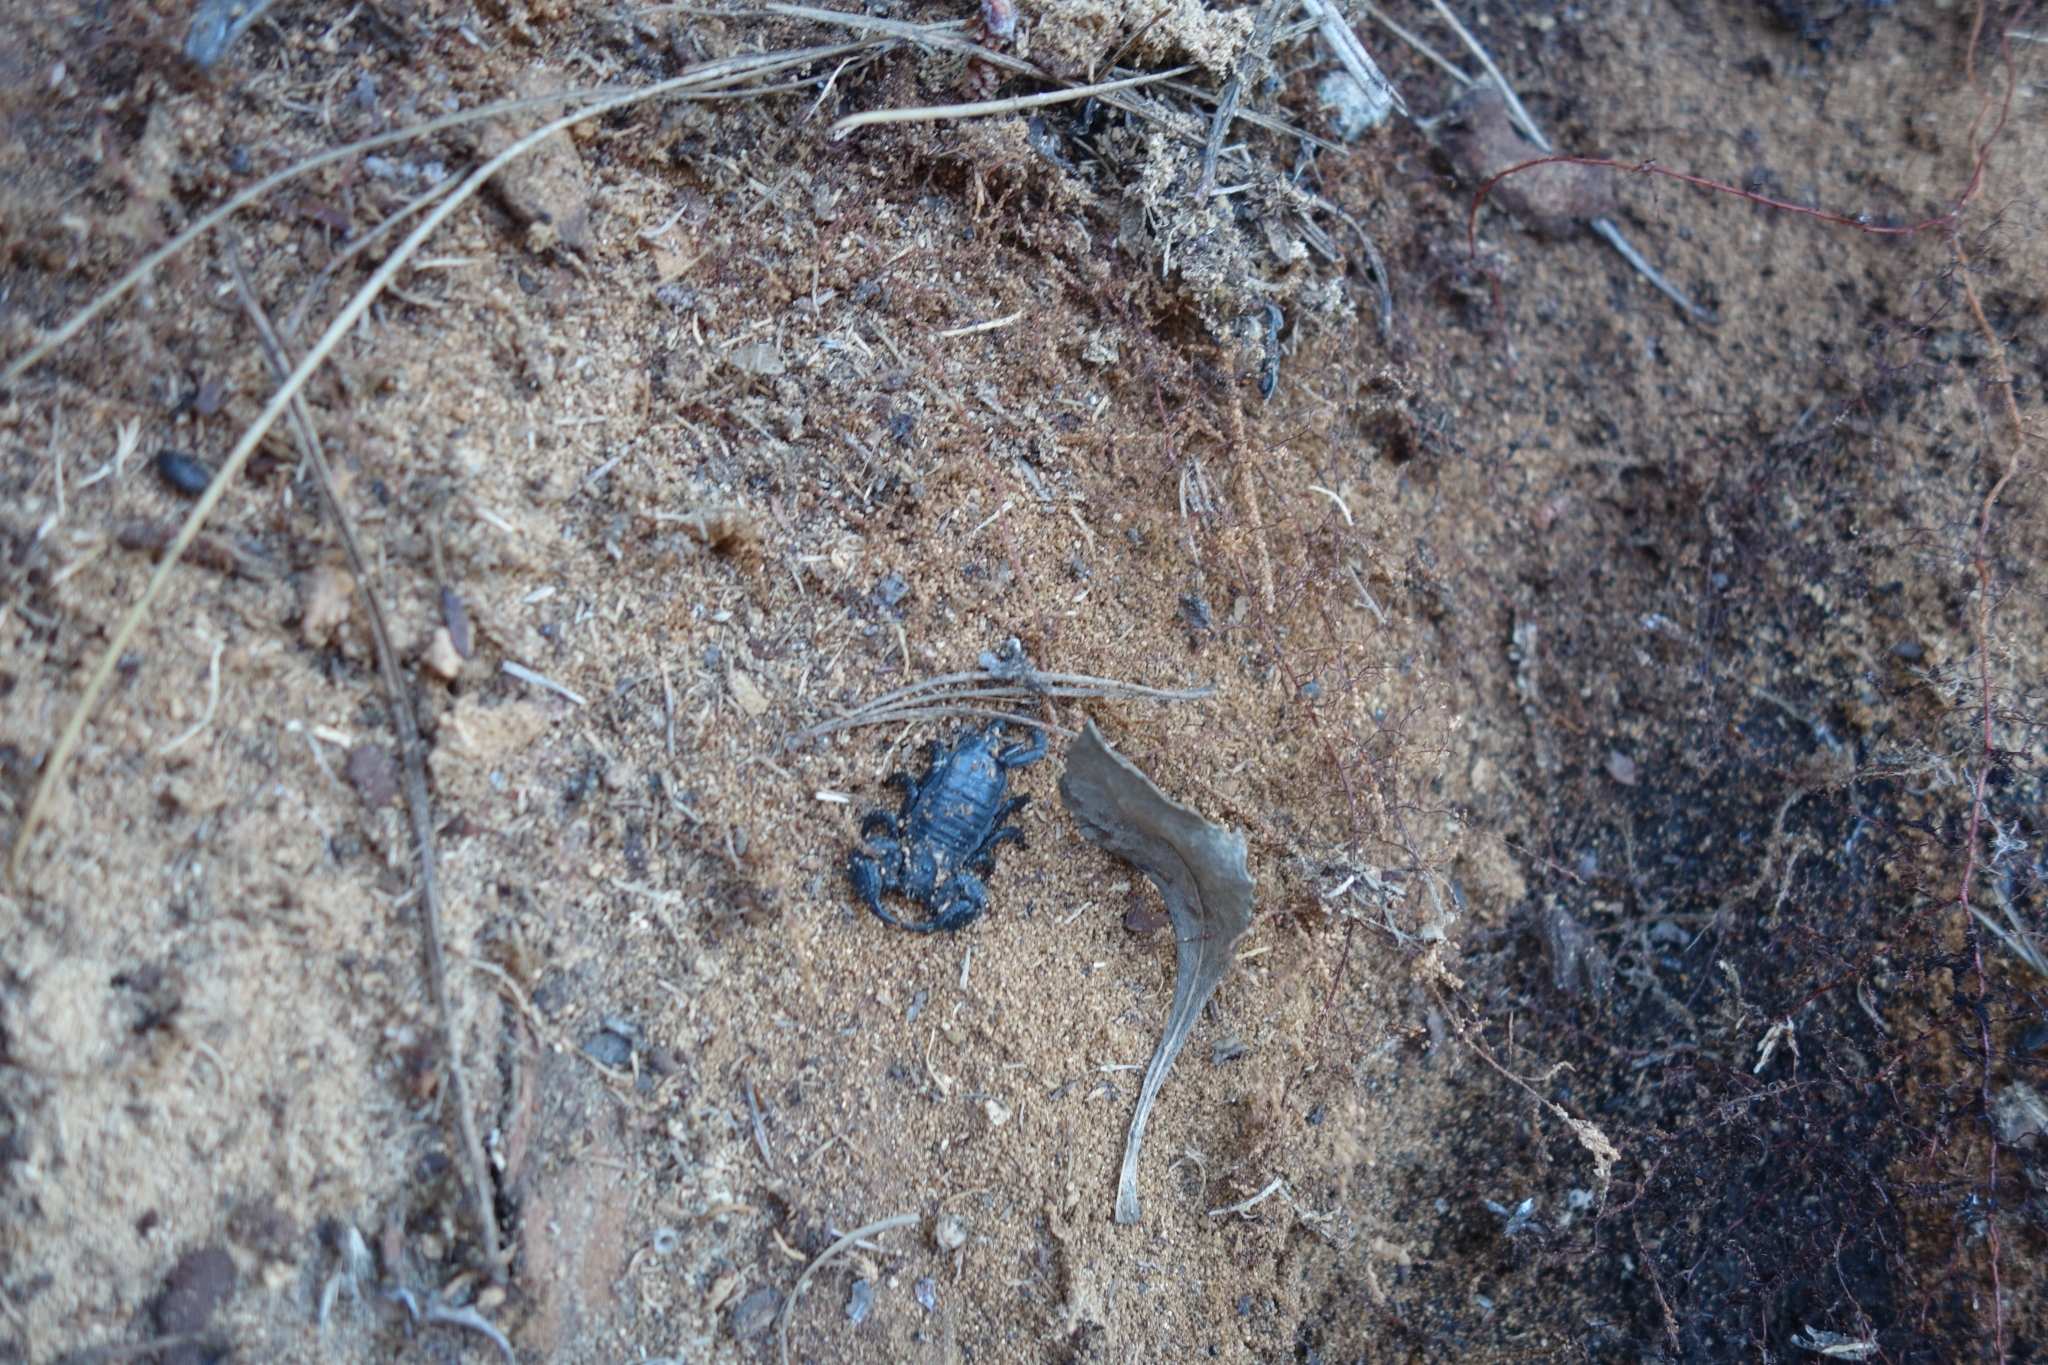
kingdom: Animalia
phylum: Arthropoda
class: Arachnida
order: Scorpiones
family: Hormuridae
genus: Opisthacanthus
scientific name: Opisthacanthus capensis
